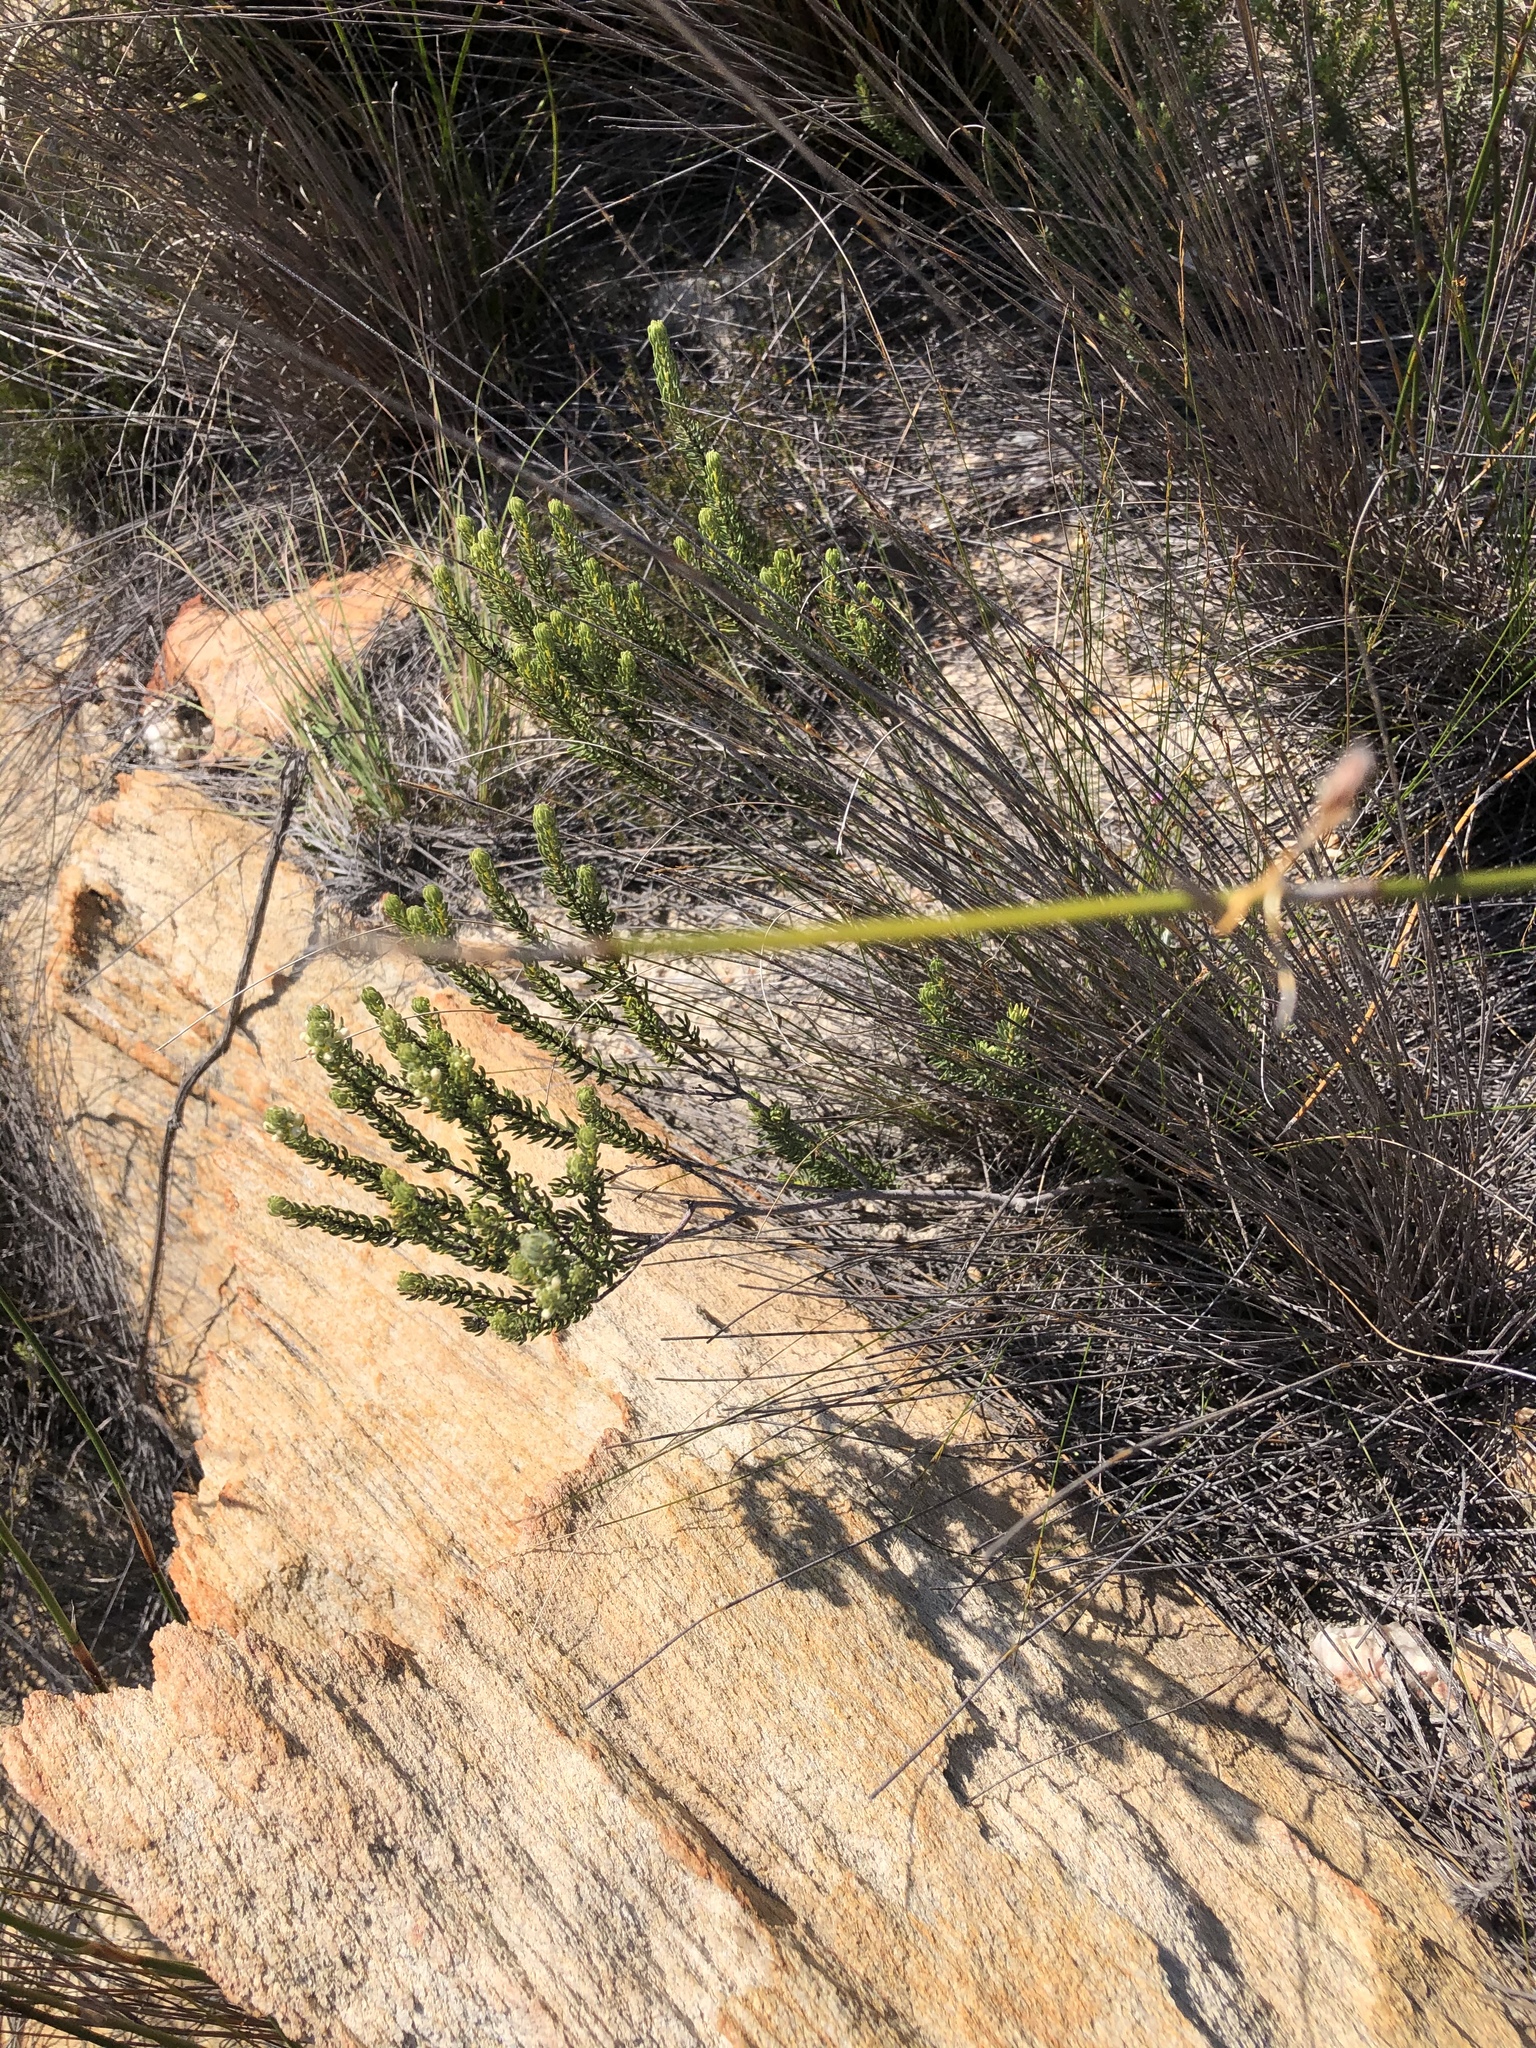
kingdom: Plantae
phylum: Tracheophyta
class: Magnoliopsida
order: Rosales
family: Rhamnaceae
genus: Phylica
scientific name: Phylica purpurea
